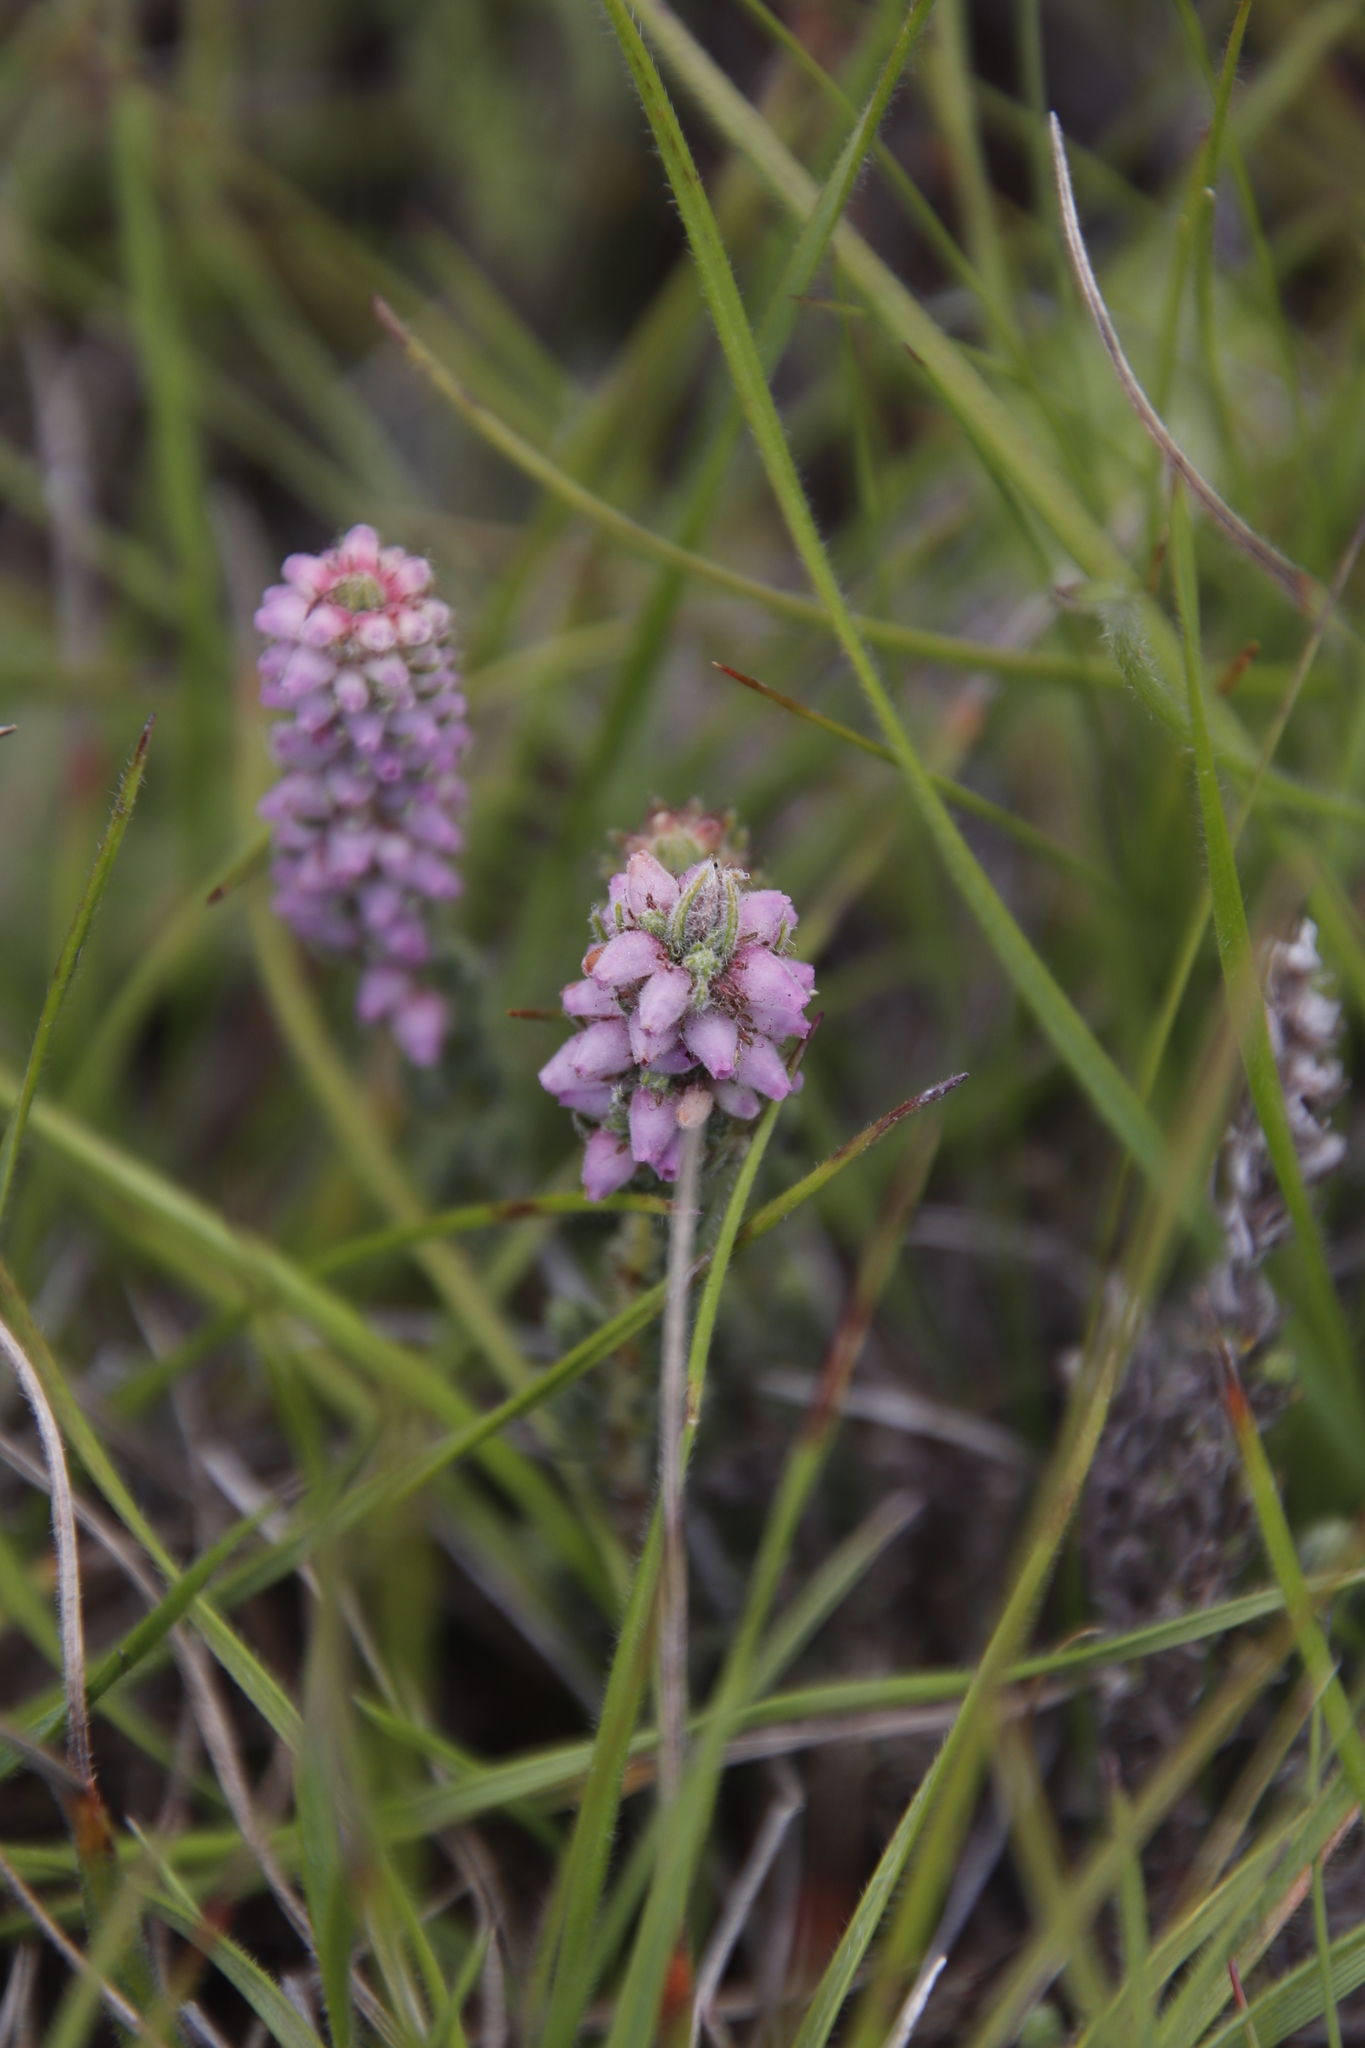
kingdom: Plantae
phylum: Tracheophyta
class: Magnoliopsida
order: Ericales
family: Ericaceae
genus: Erica
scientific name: Erica alopecurus
